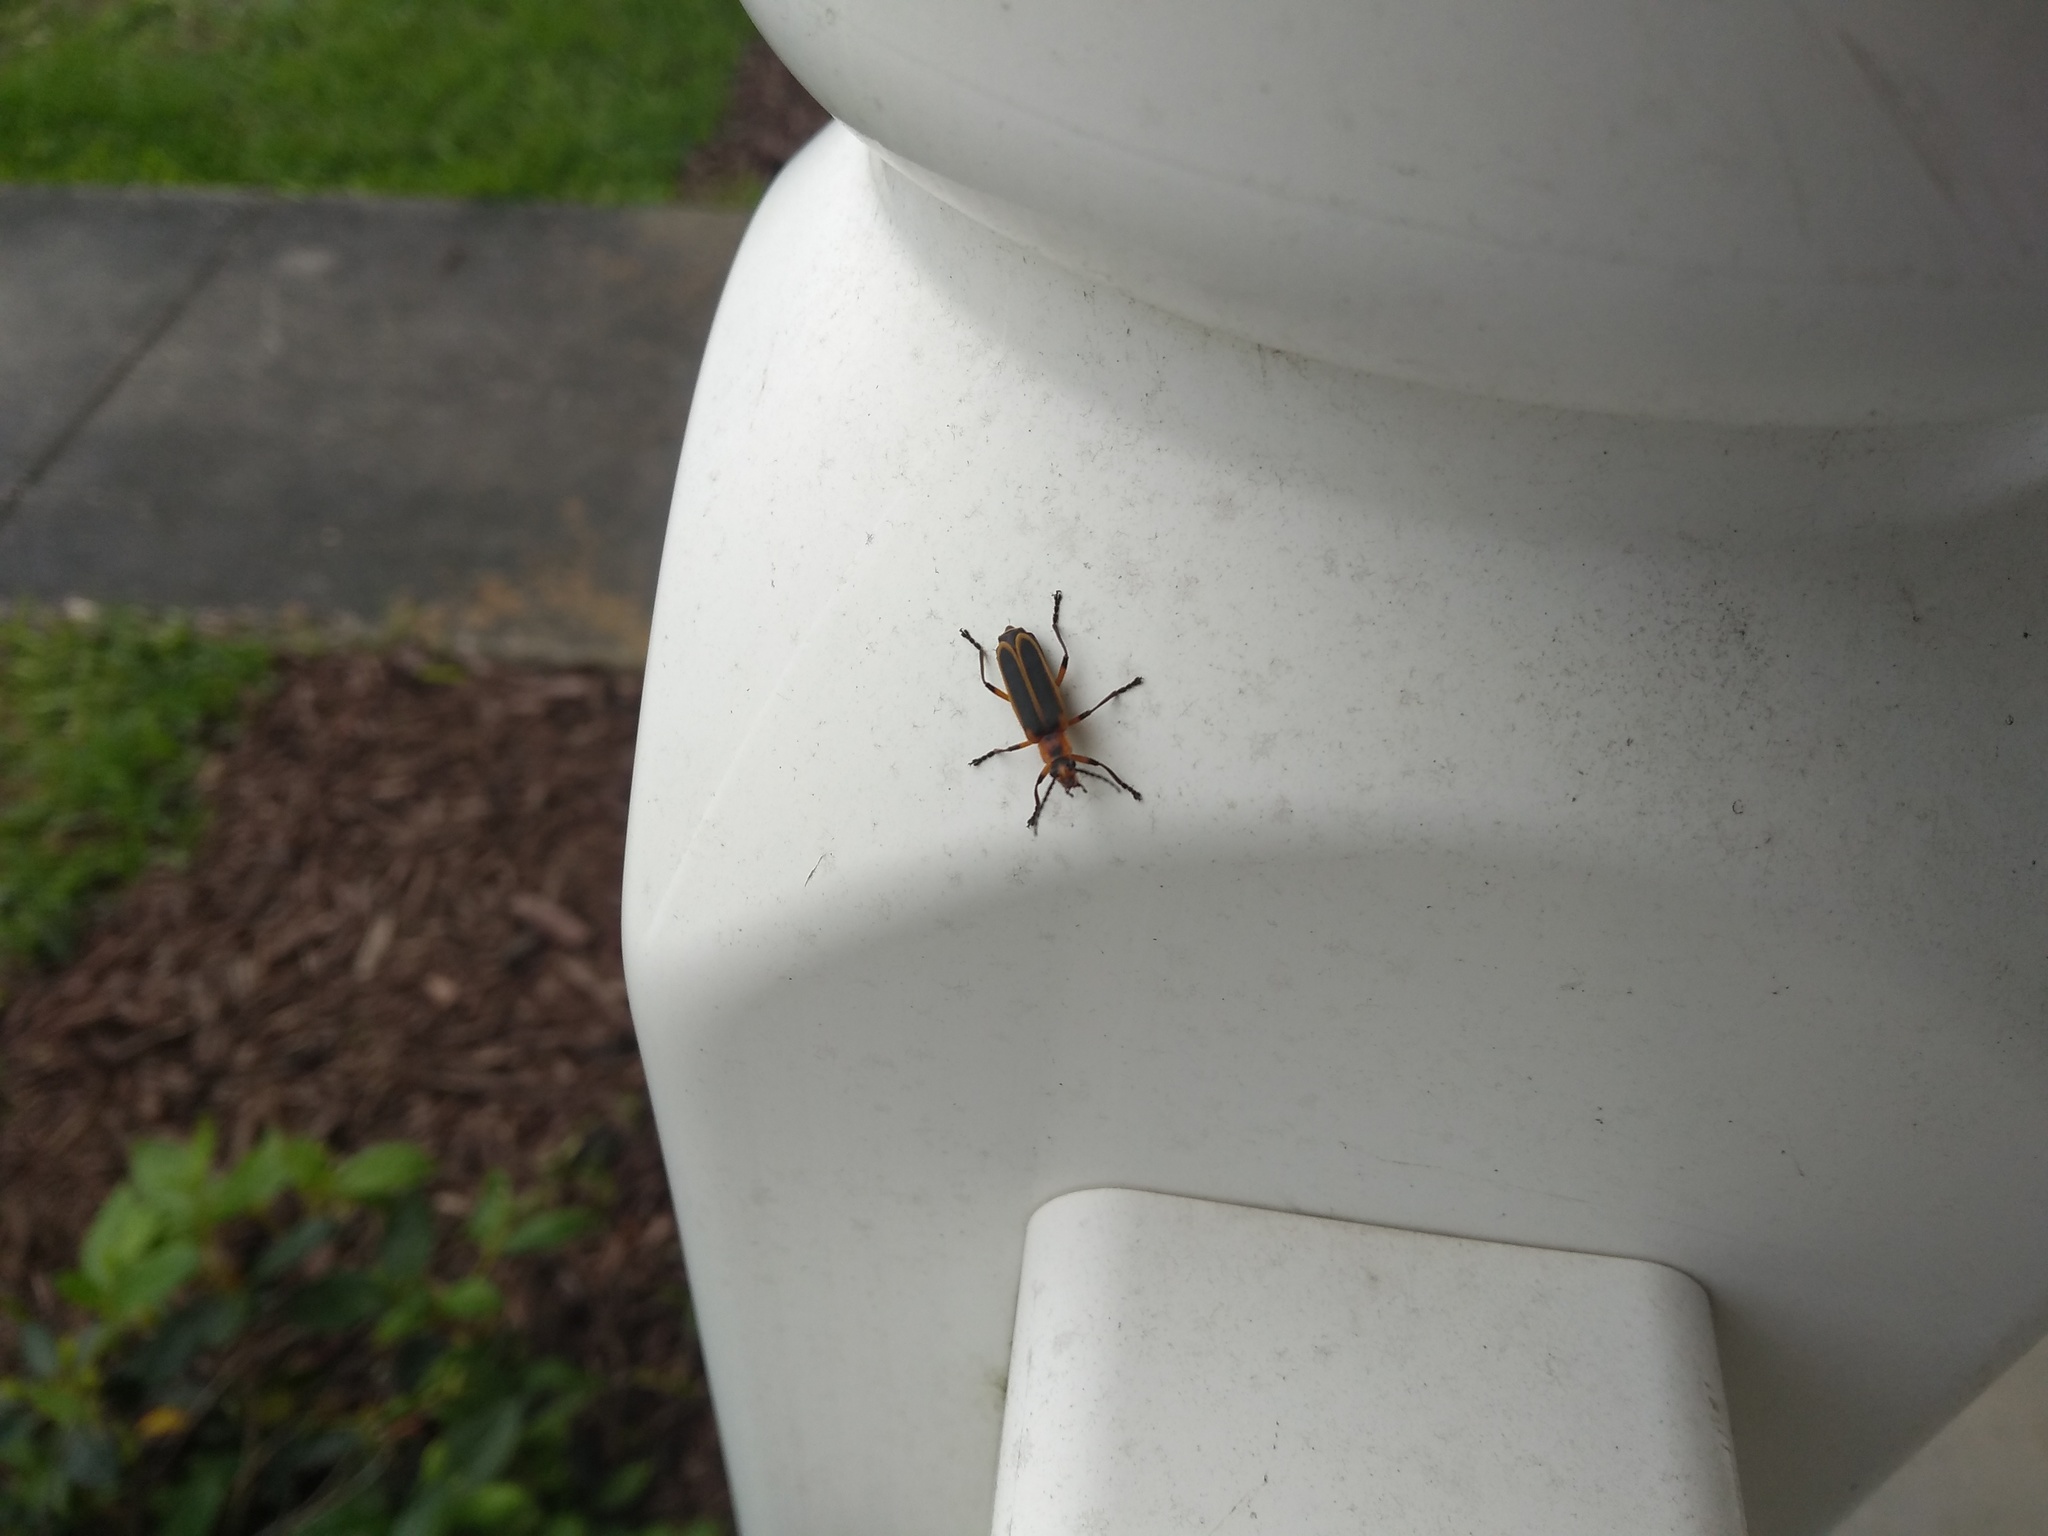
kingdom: Animalia
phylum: Arthropoda
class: Insecta
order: Coleoptera
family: Cantharidae
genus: Chauliognathus
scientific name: Chauliognathus marginatus
